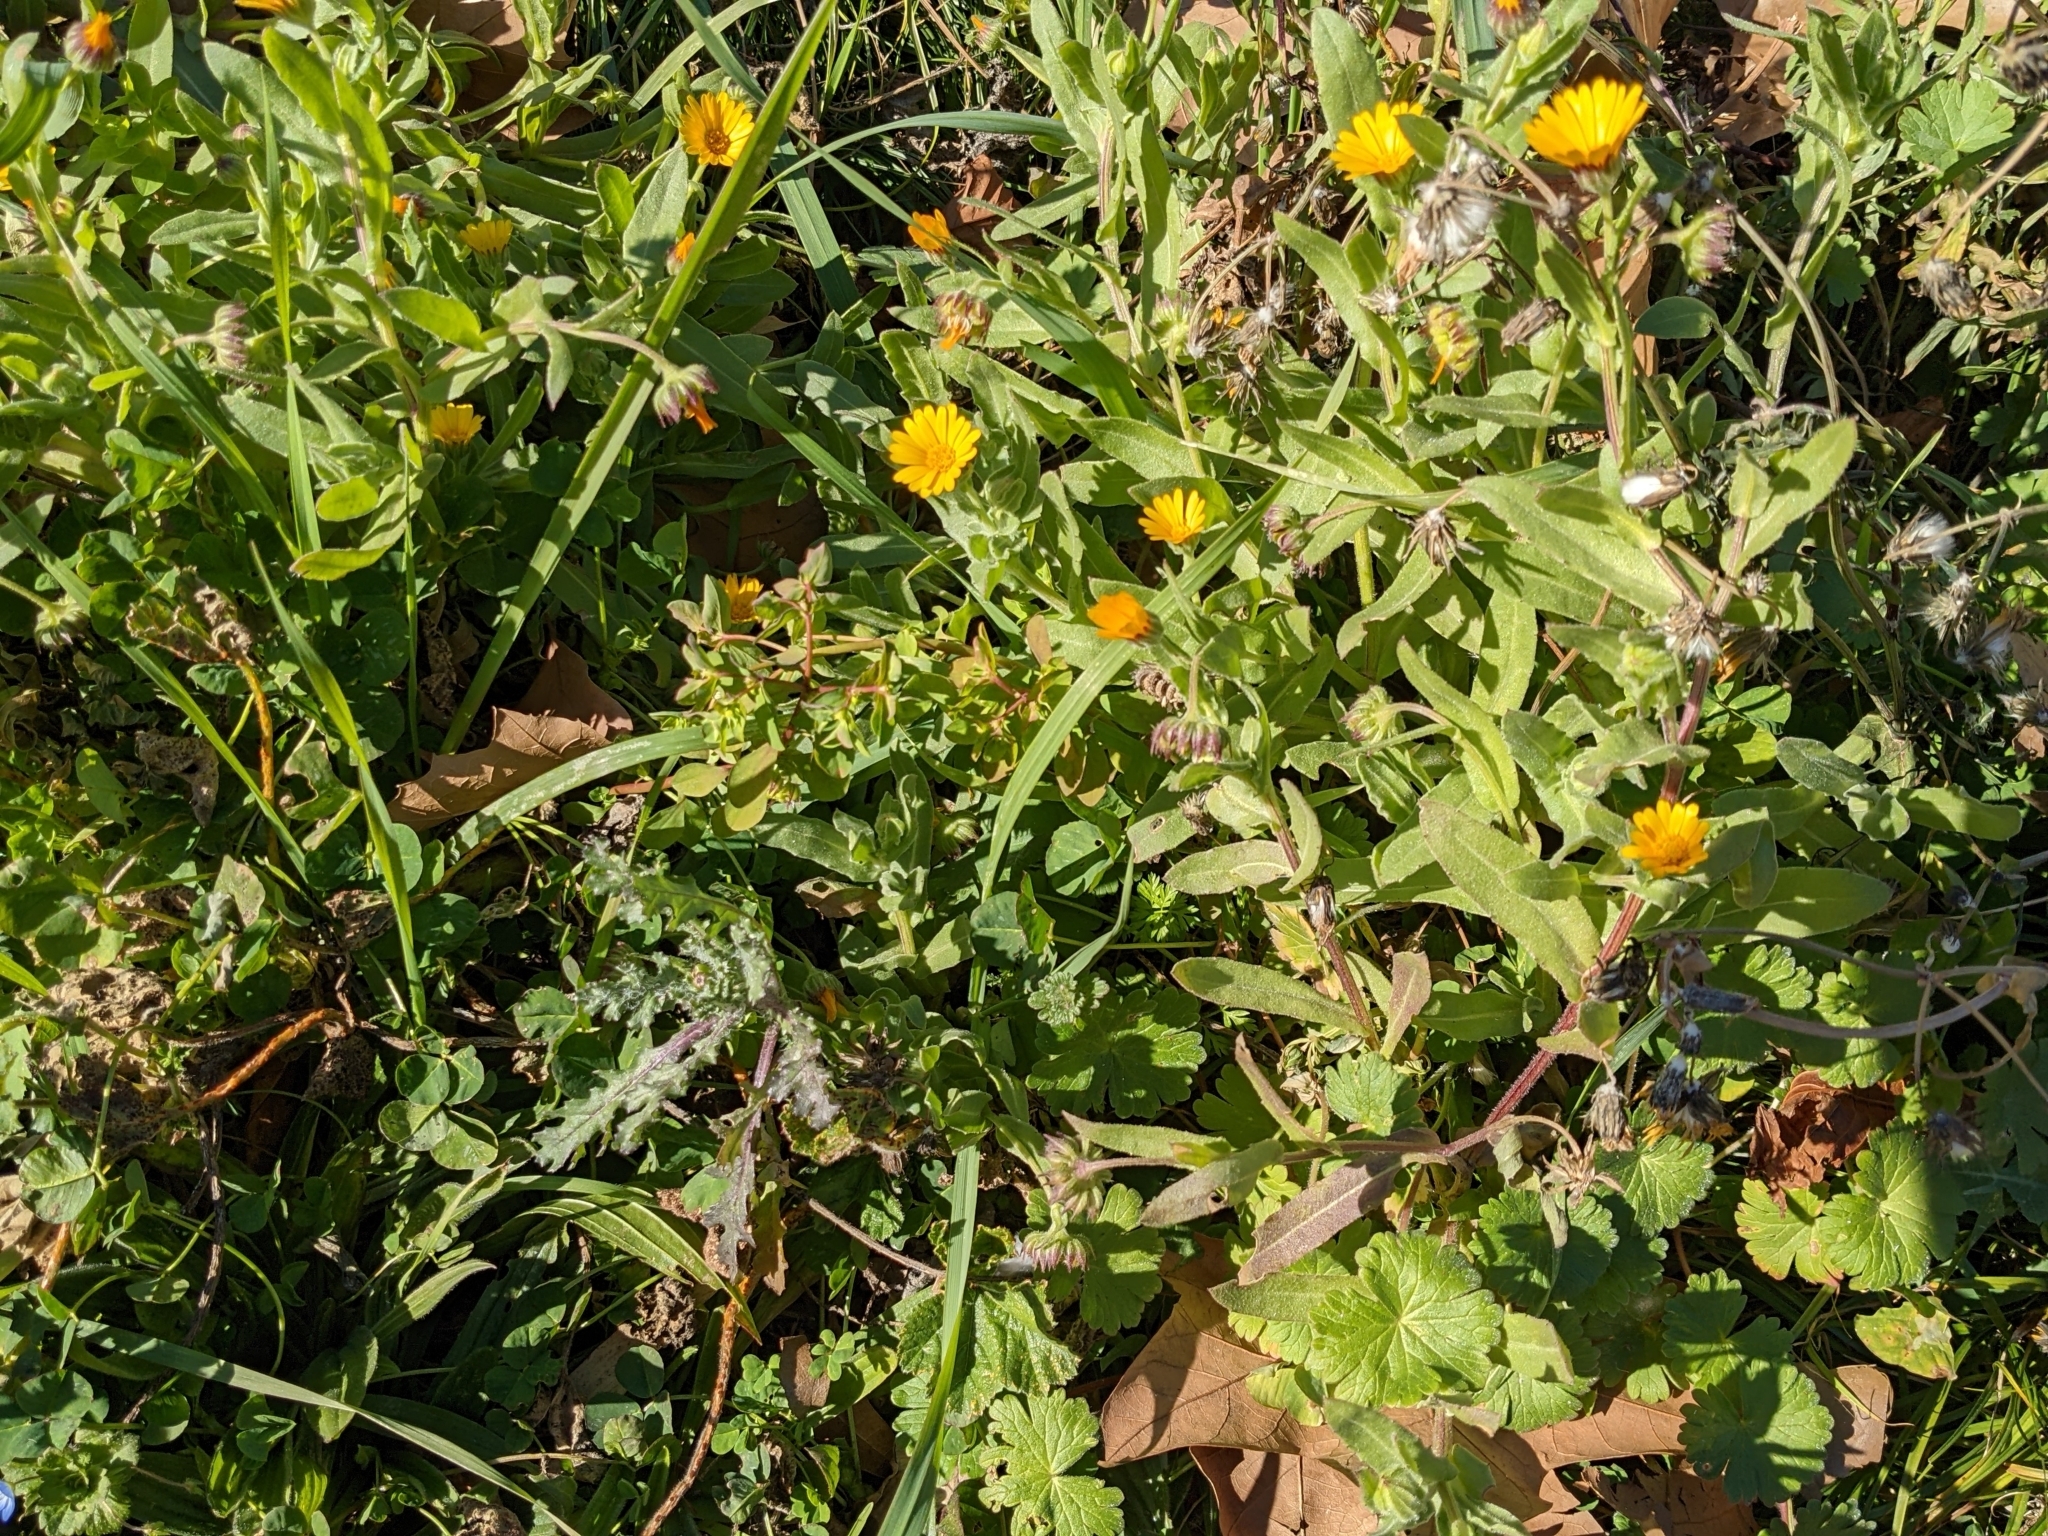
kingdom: Plantae
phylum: Tracheophyta
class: Magnoliopsida
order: Asterales
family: Asteraceae
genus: Calendula
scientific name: Calendula arvensis
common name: Field marigold
